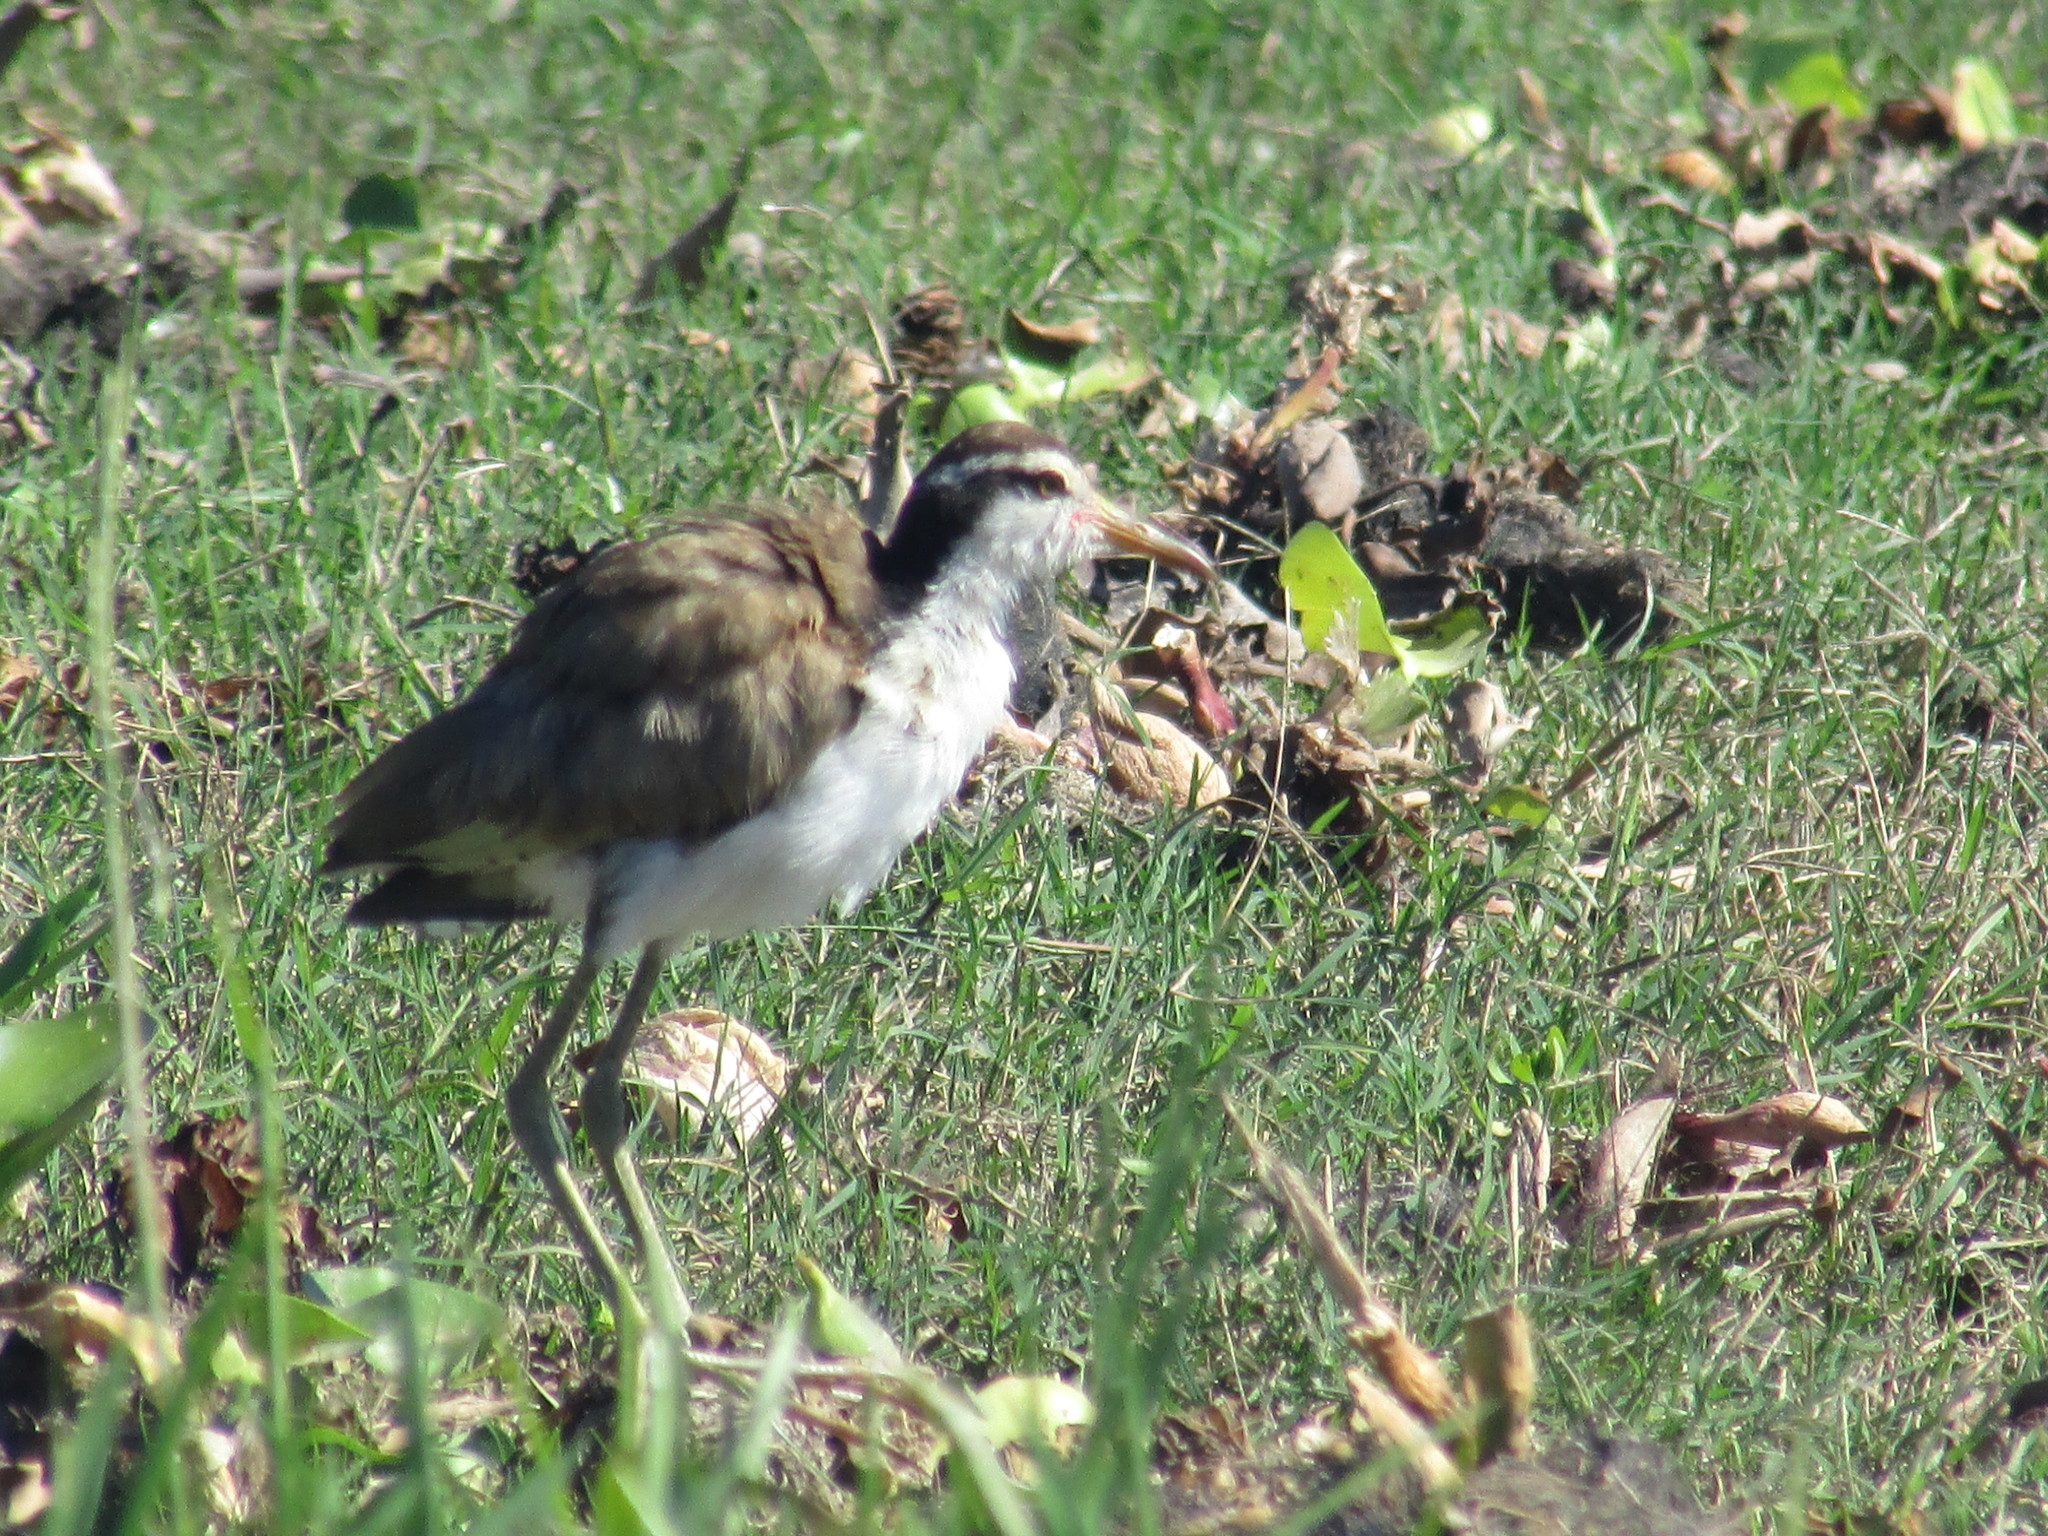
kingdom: Animalia
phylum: Chordata
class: Aves
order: Charadriiformes
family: Jacanidae
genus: Jacana
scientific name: Jacana jacana
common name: Wattled jacana
